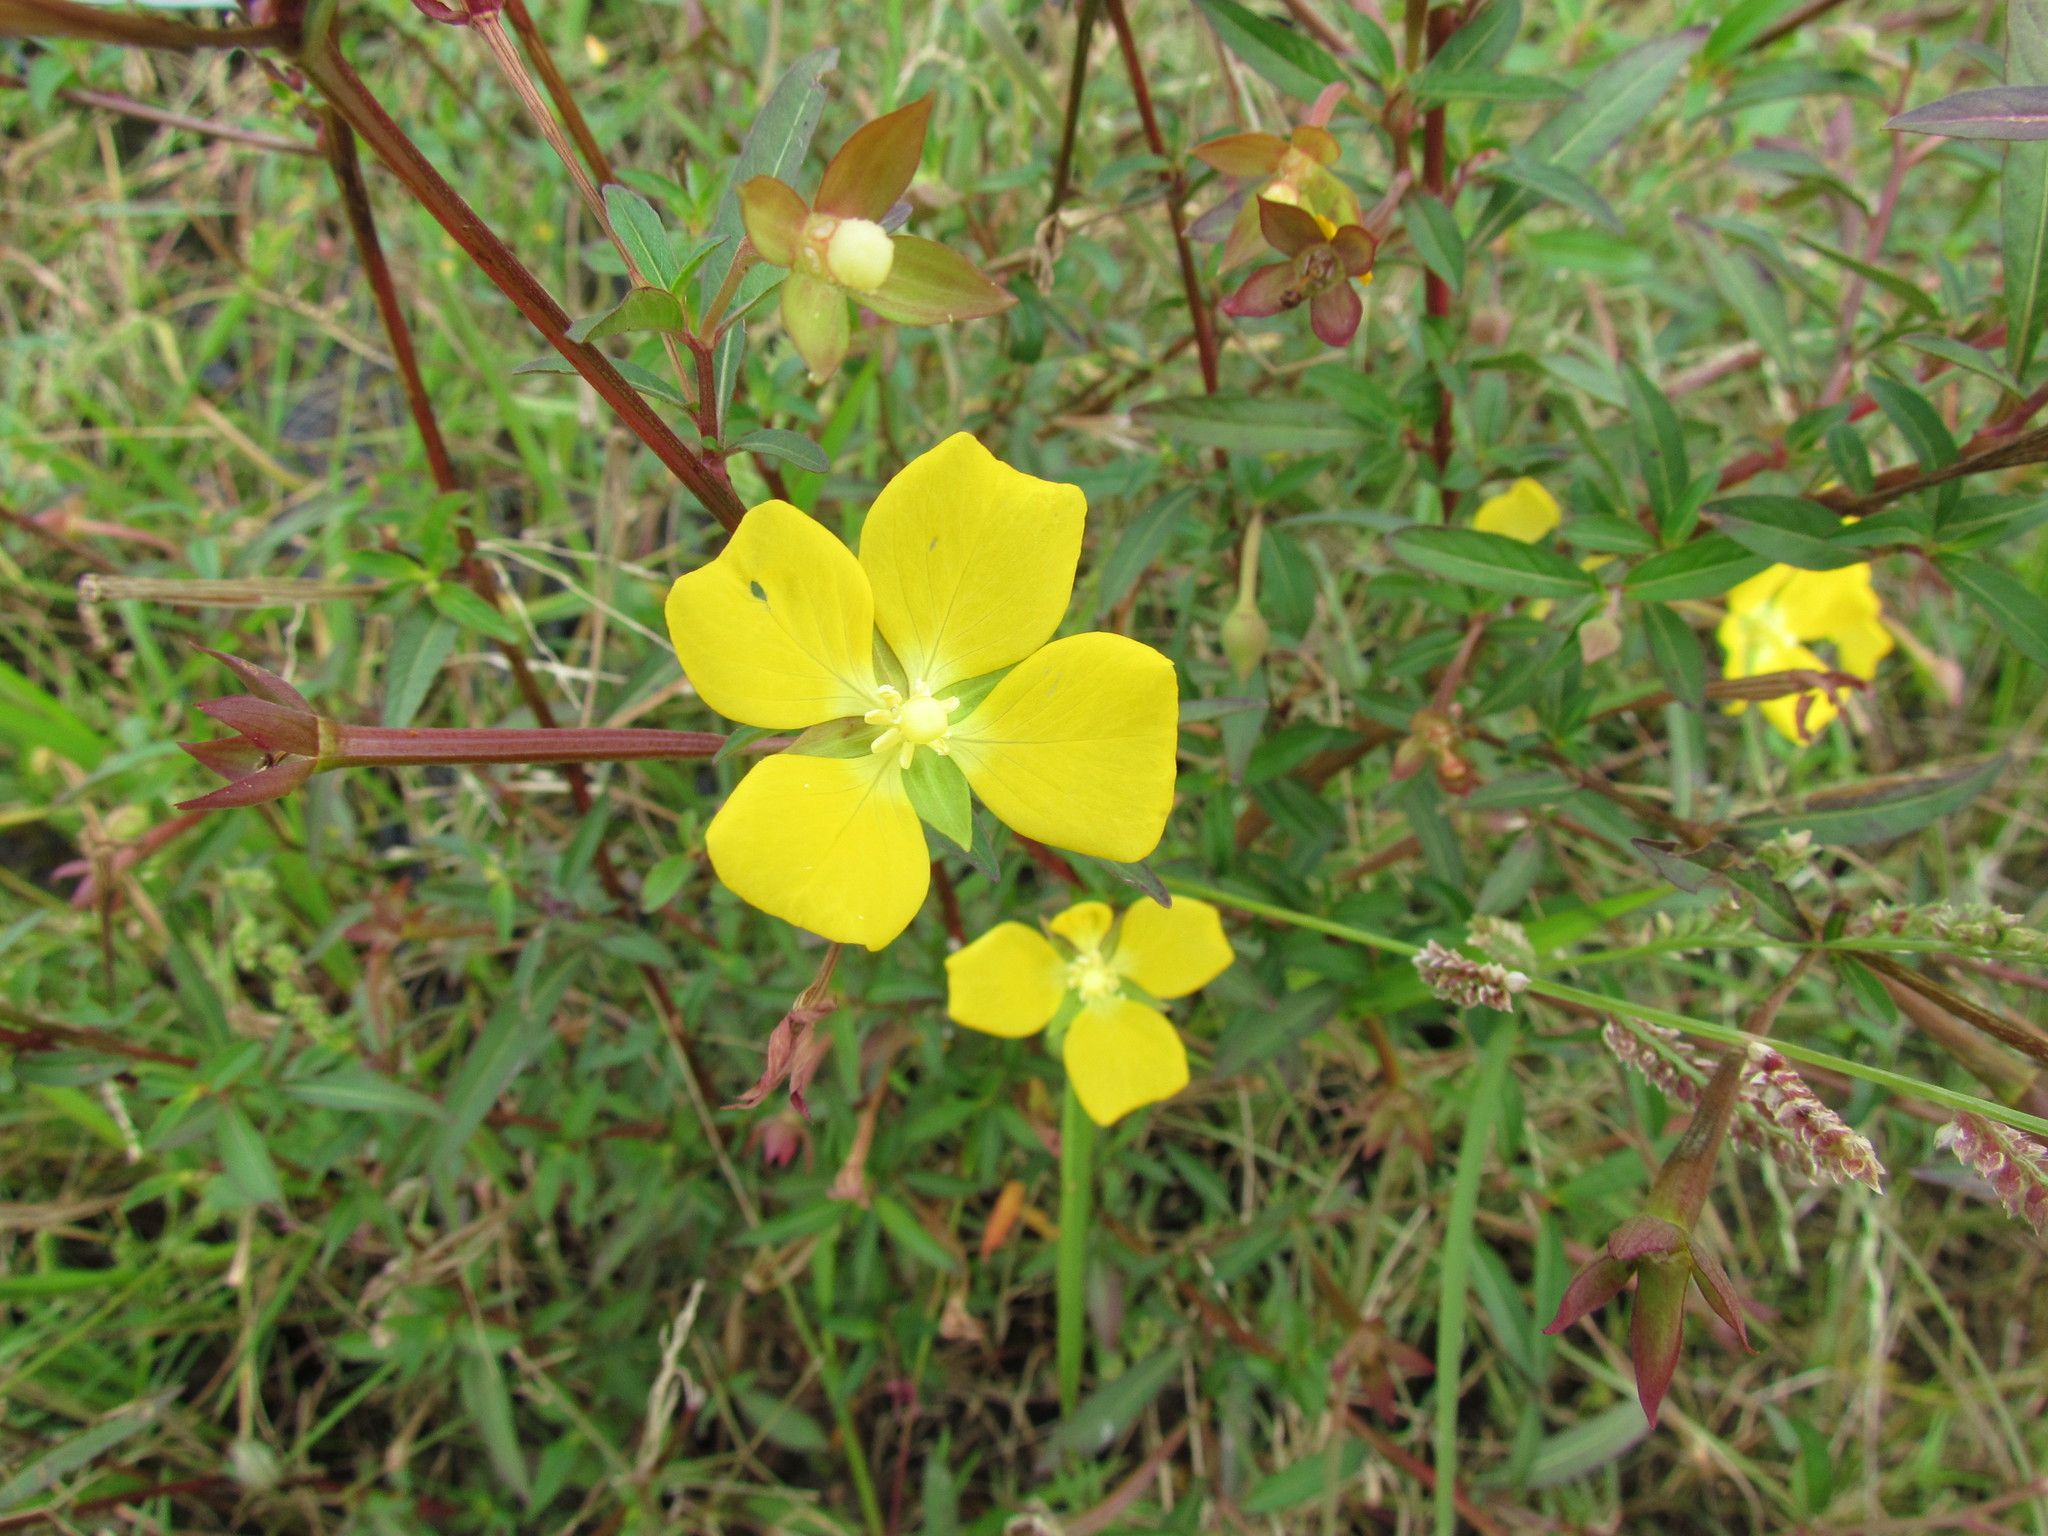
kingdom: Plantae
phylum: Tracheophyta
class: Magnoliopsida
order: Myrtales
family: Onagraceae
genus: Ludwigia
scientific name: Ludwigia octovalvis
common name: Water-primrose
